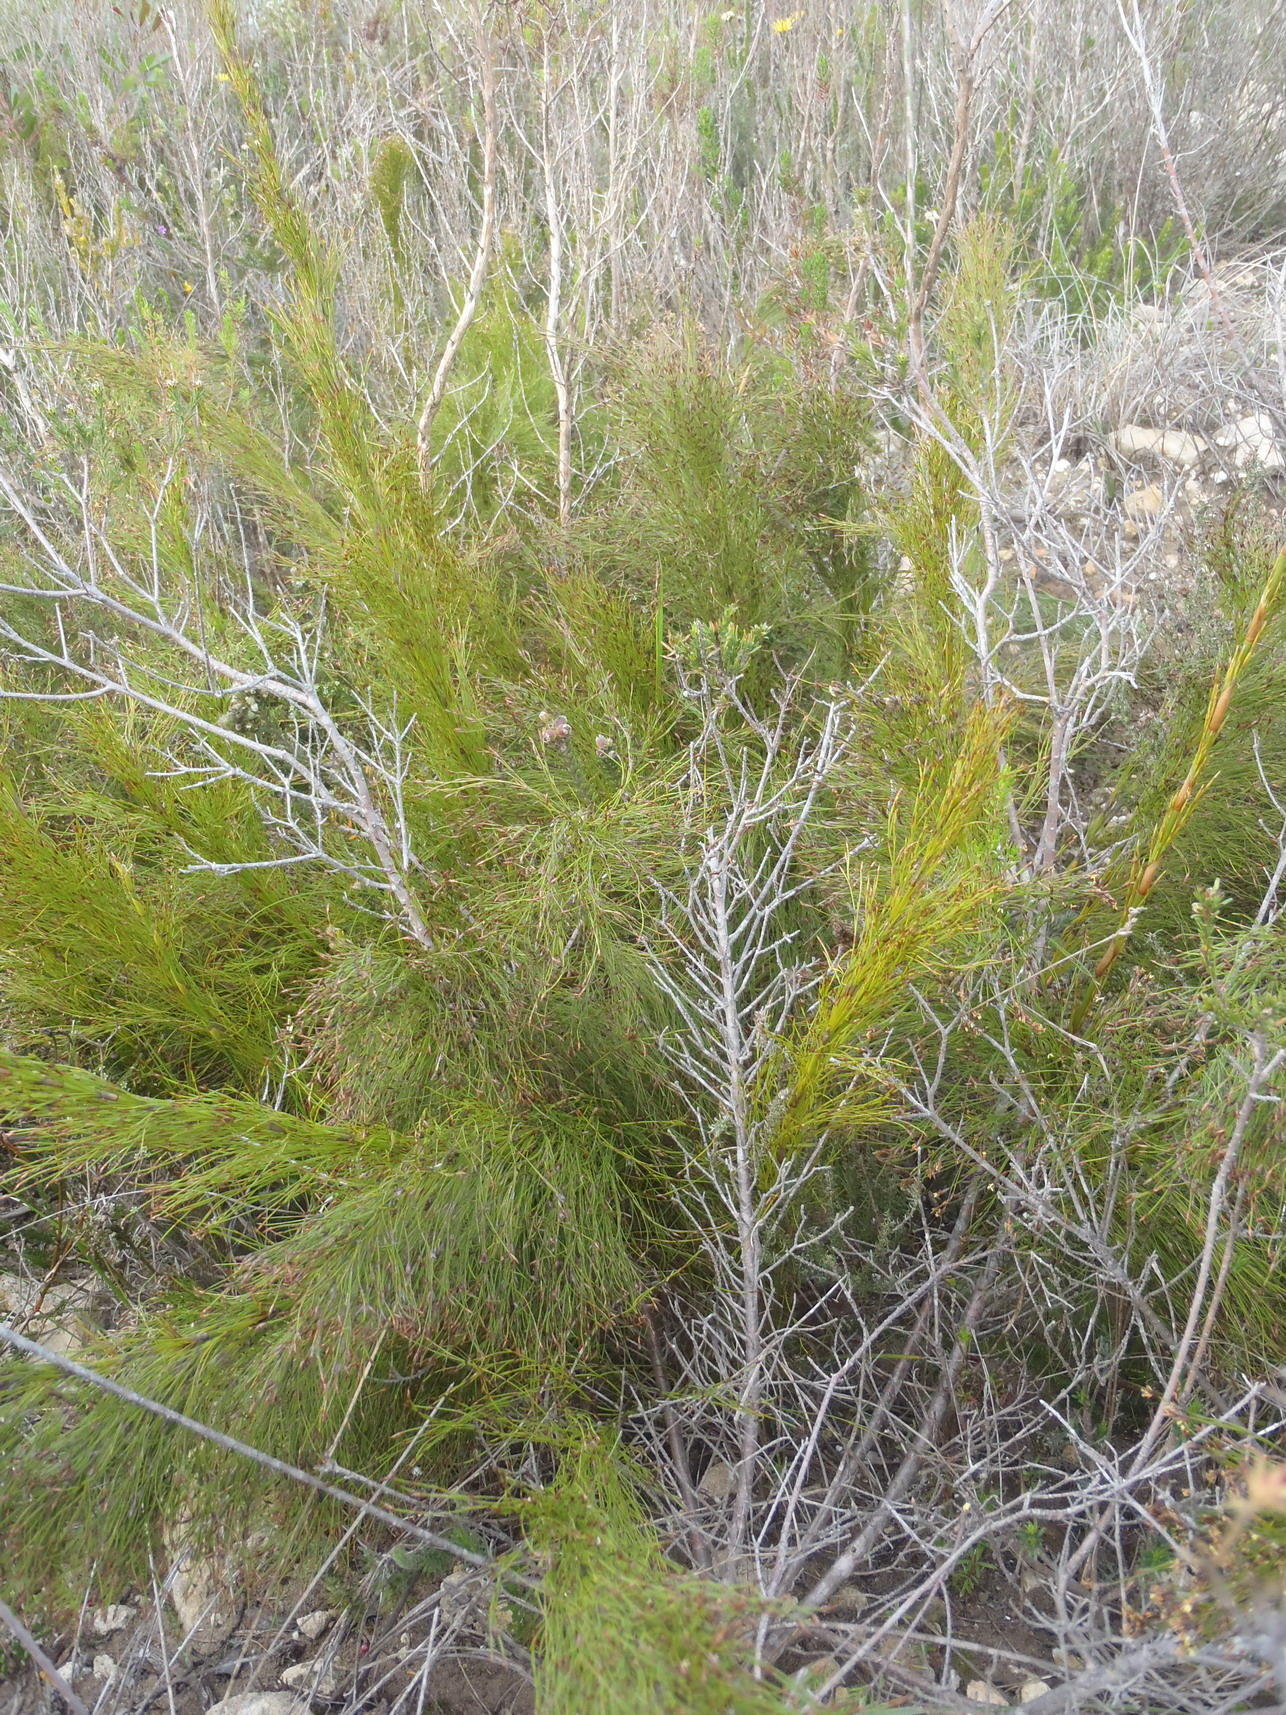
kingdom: Plantae
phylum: Tracheophyta
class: Liliopsida
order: Poales
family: Restionaceae
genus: Restio
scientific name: Restio leptoclados
